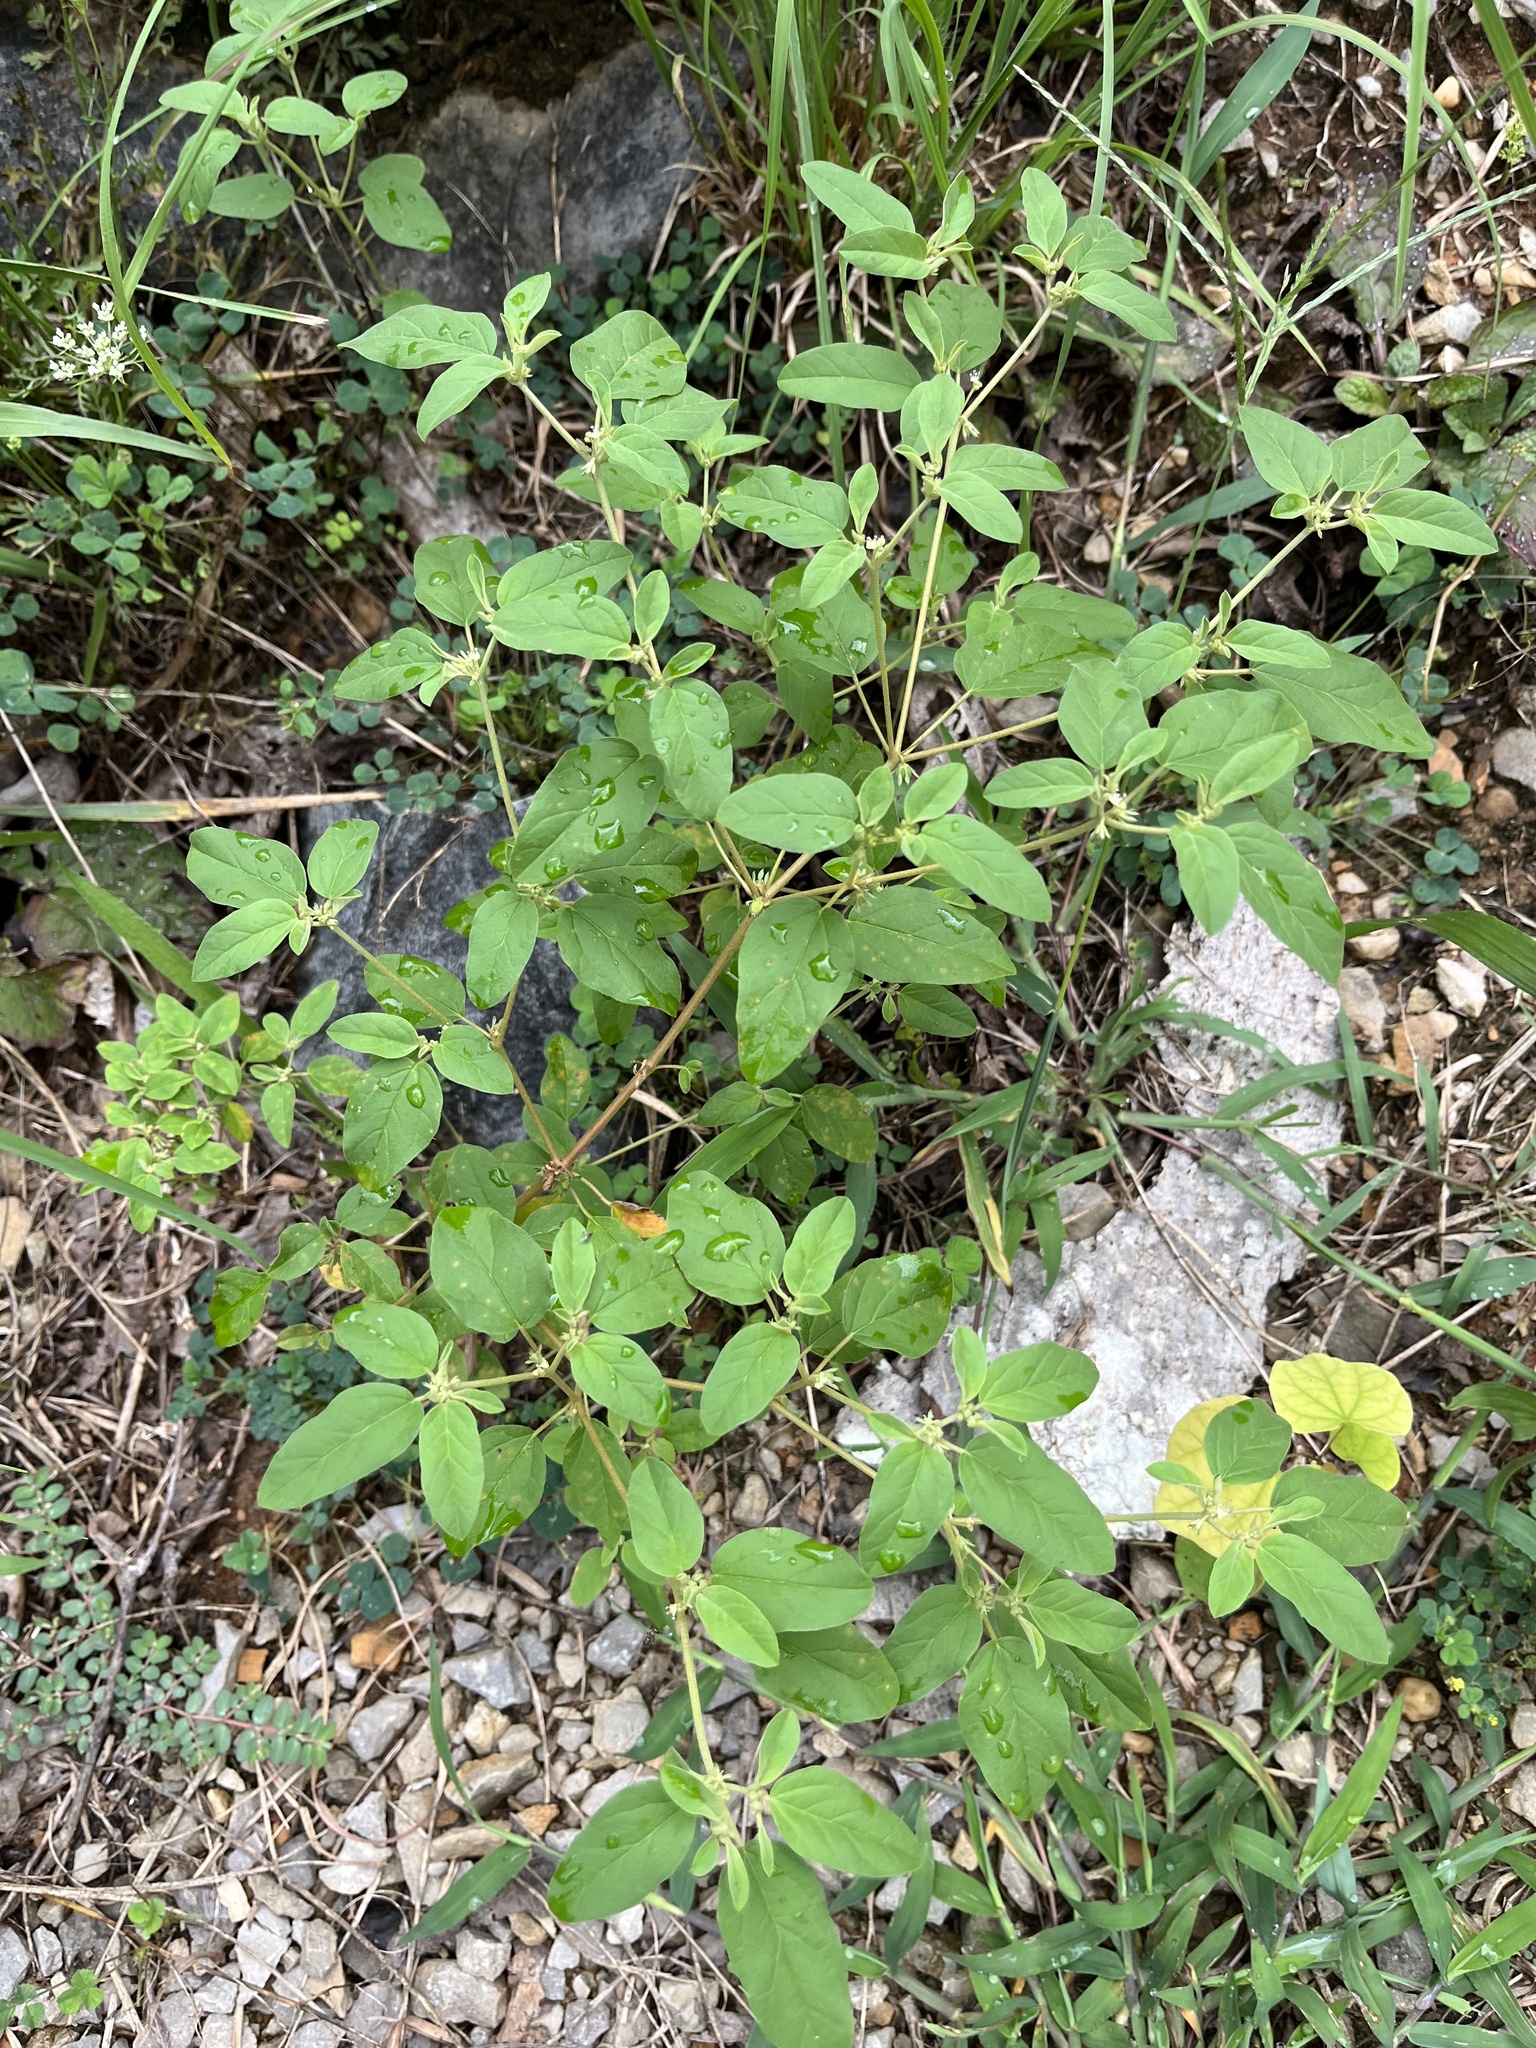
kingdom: Plantae
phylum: Tracheophyta
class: Magnoliopsida
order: Malpighiales
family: Euphorbiaceae
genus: Croton
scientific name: Croton monanthogynus
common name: One-seed croton
